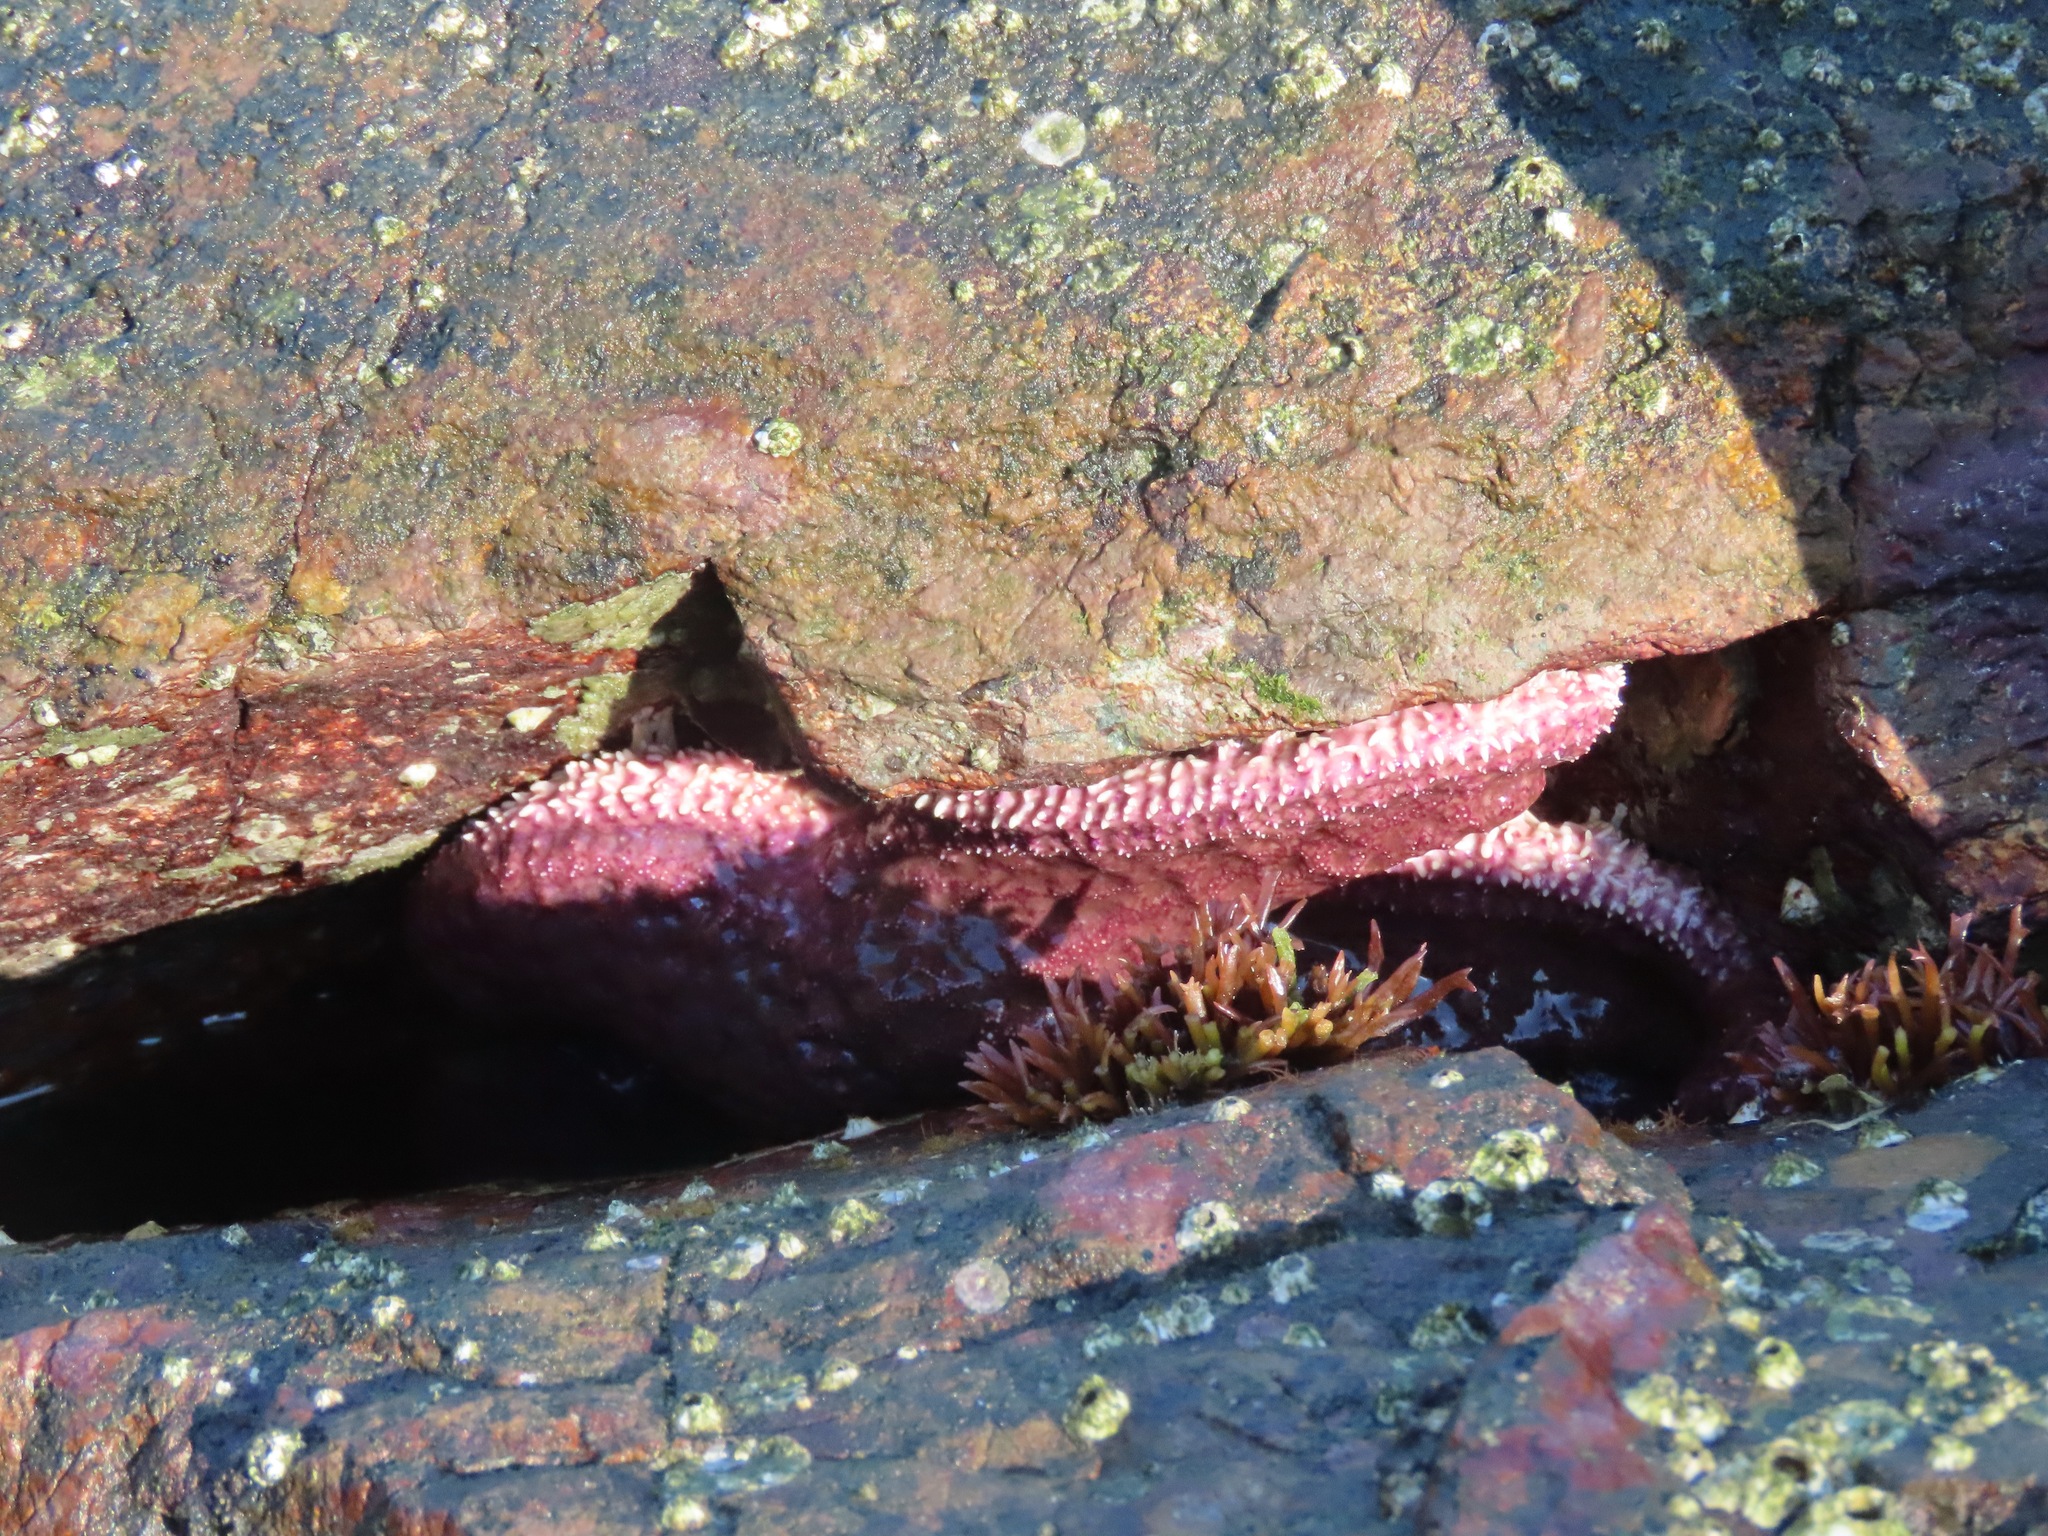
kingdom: Animalia
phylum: Echinodermata
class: Asteroidea
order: Forcipulatida
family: Asteriidae
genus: Pisaster
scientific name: Pisaster ochraceus
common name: Ochre stars
